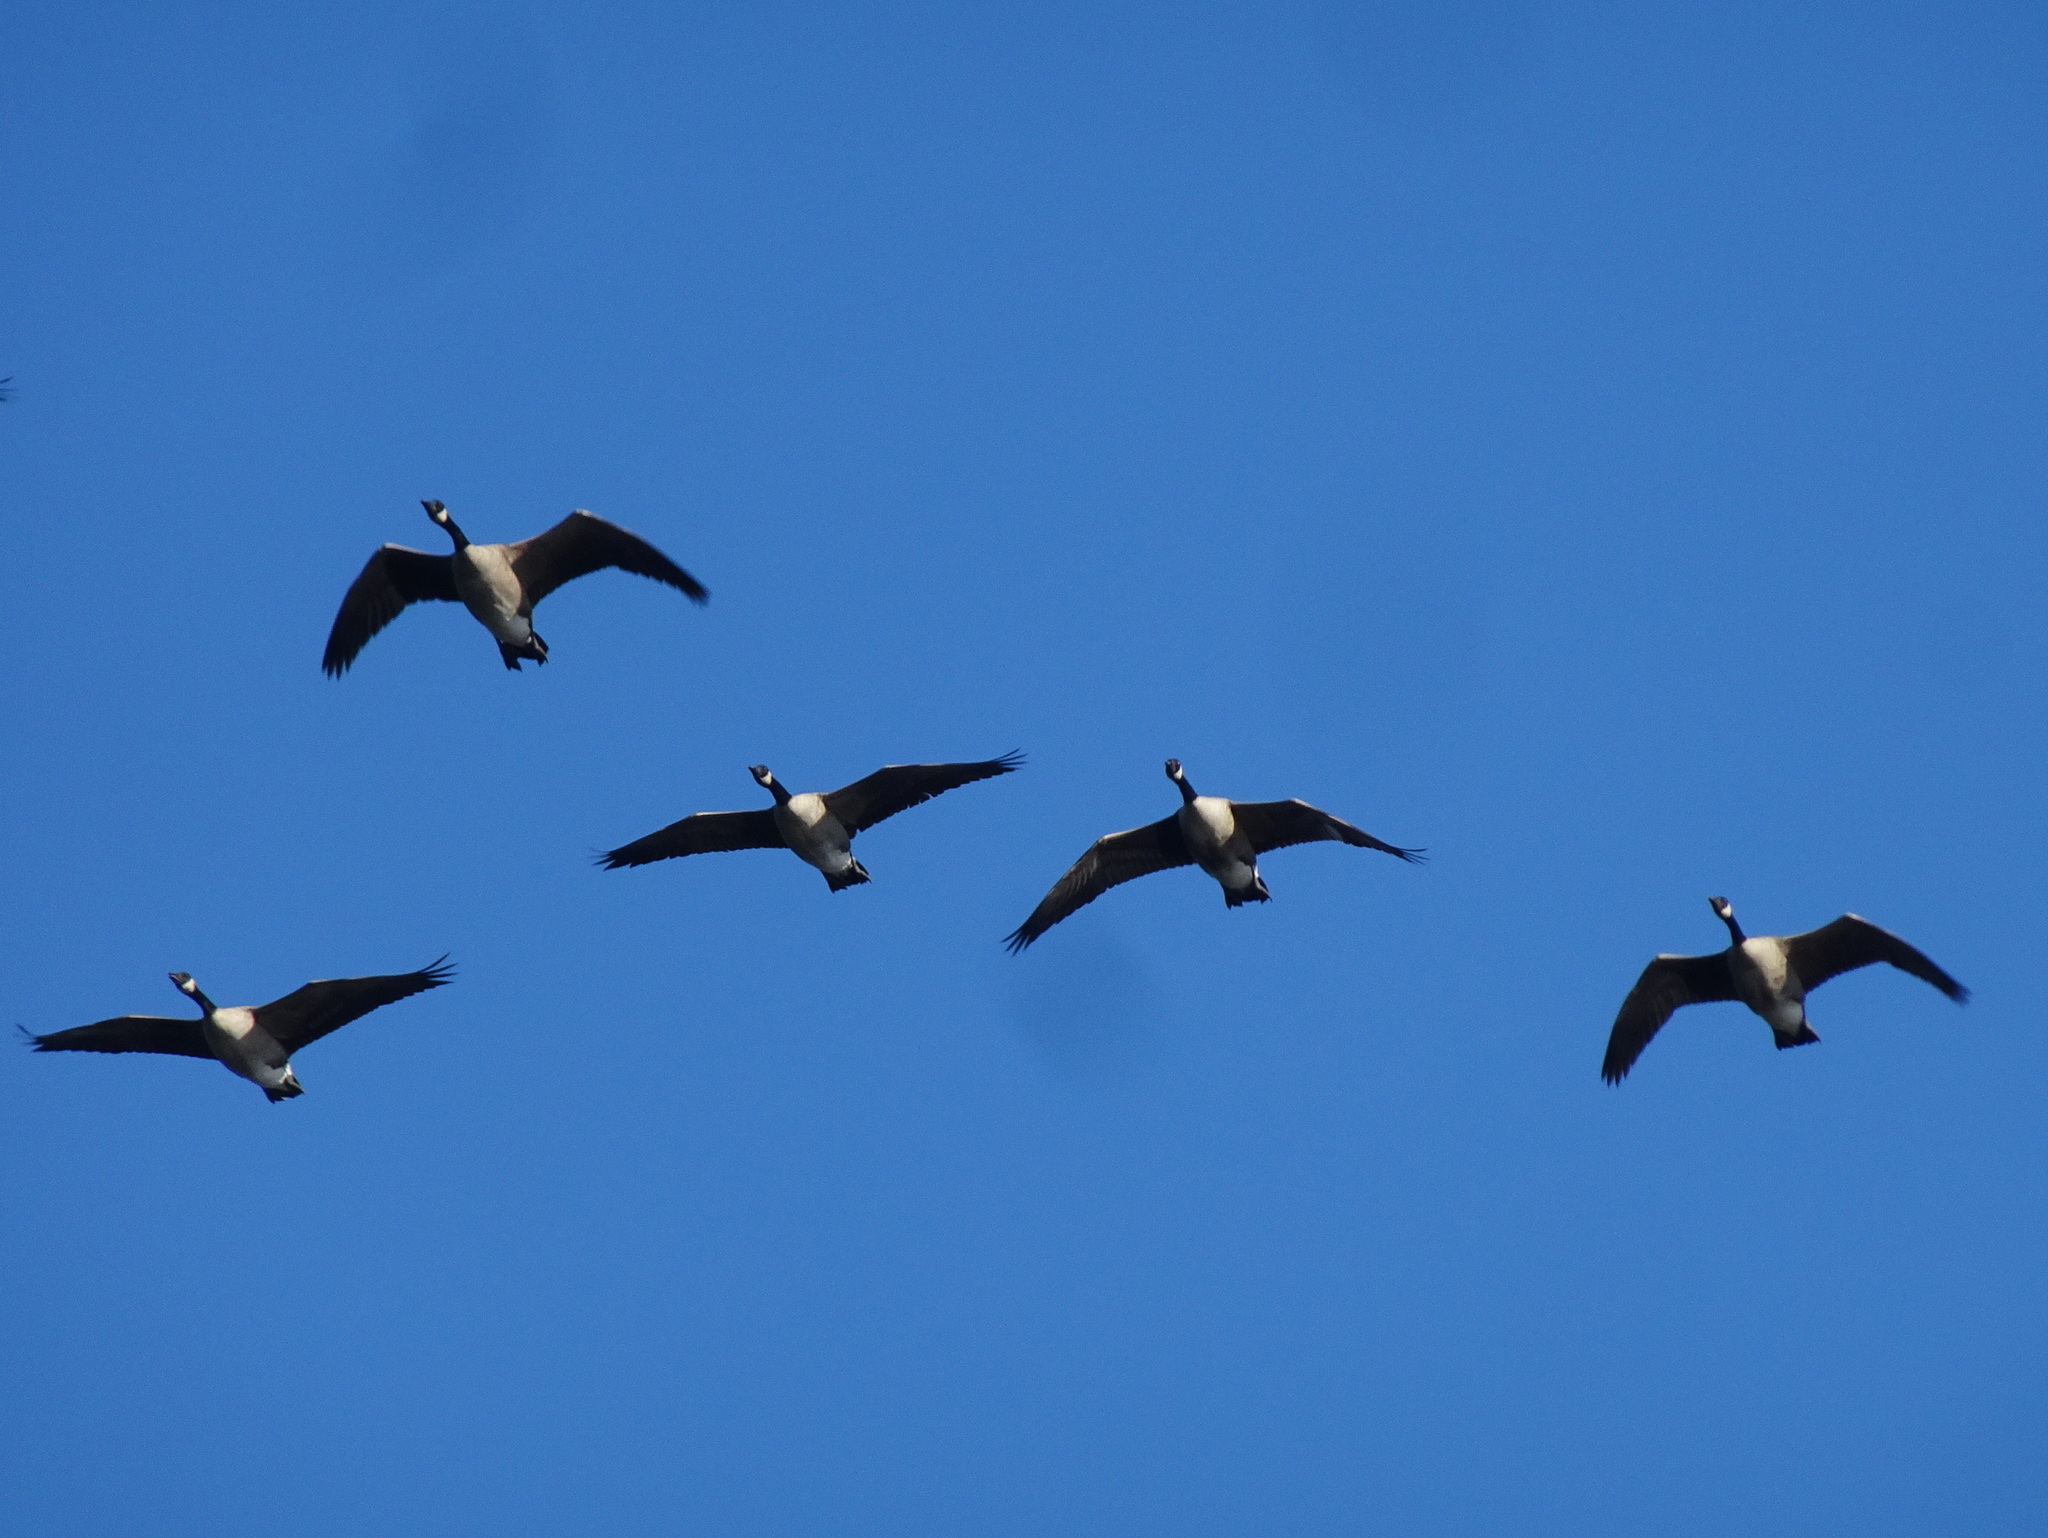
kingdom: Animalia
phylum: Chordata
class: Aves
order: Anseriformes
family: Anatidae
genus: Branta
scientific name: Branta canadensis
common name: Canada goose
